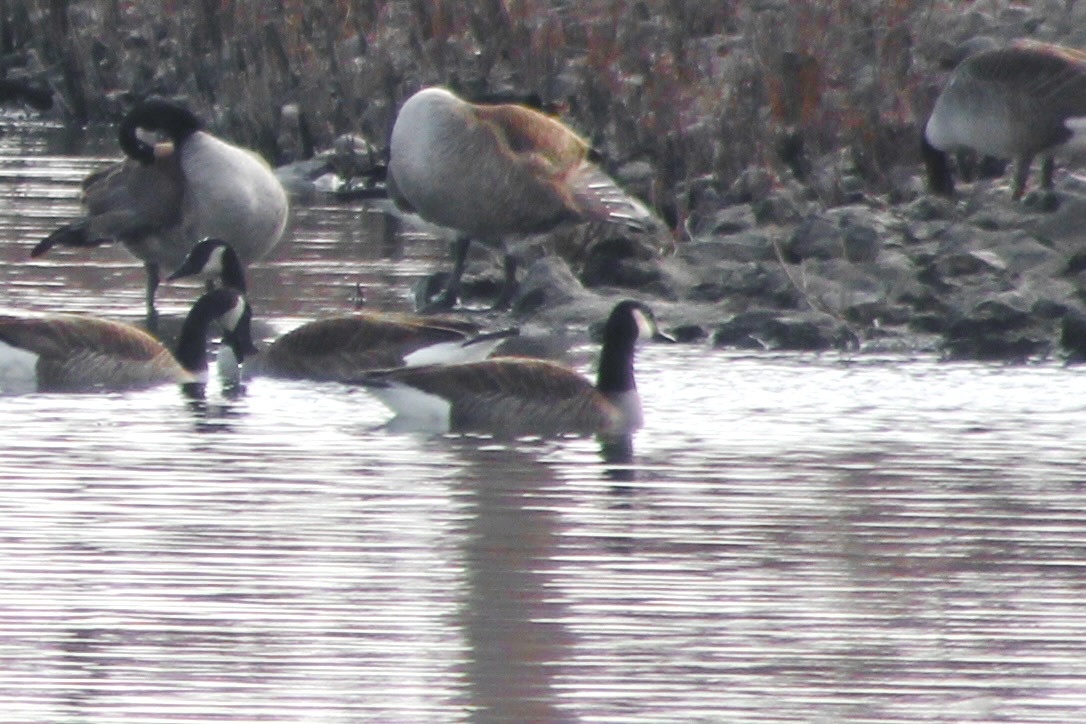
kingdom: Animalia
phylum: Chordata
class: Aves
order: Anseriformes
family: Anatidae
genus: Branta
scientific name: Branta canadensis
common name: Canada goose
